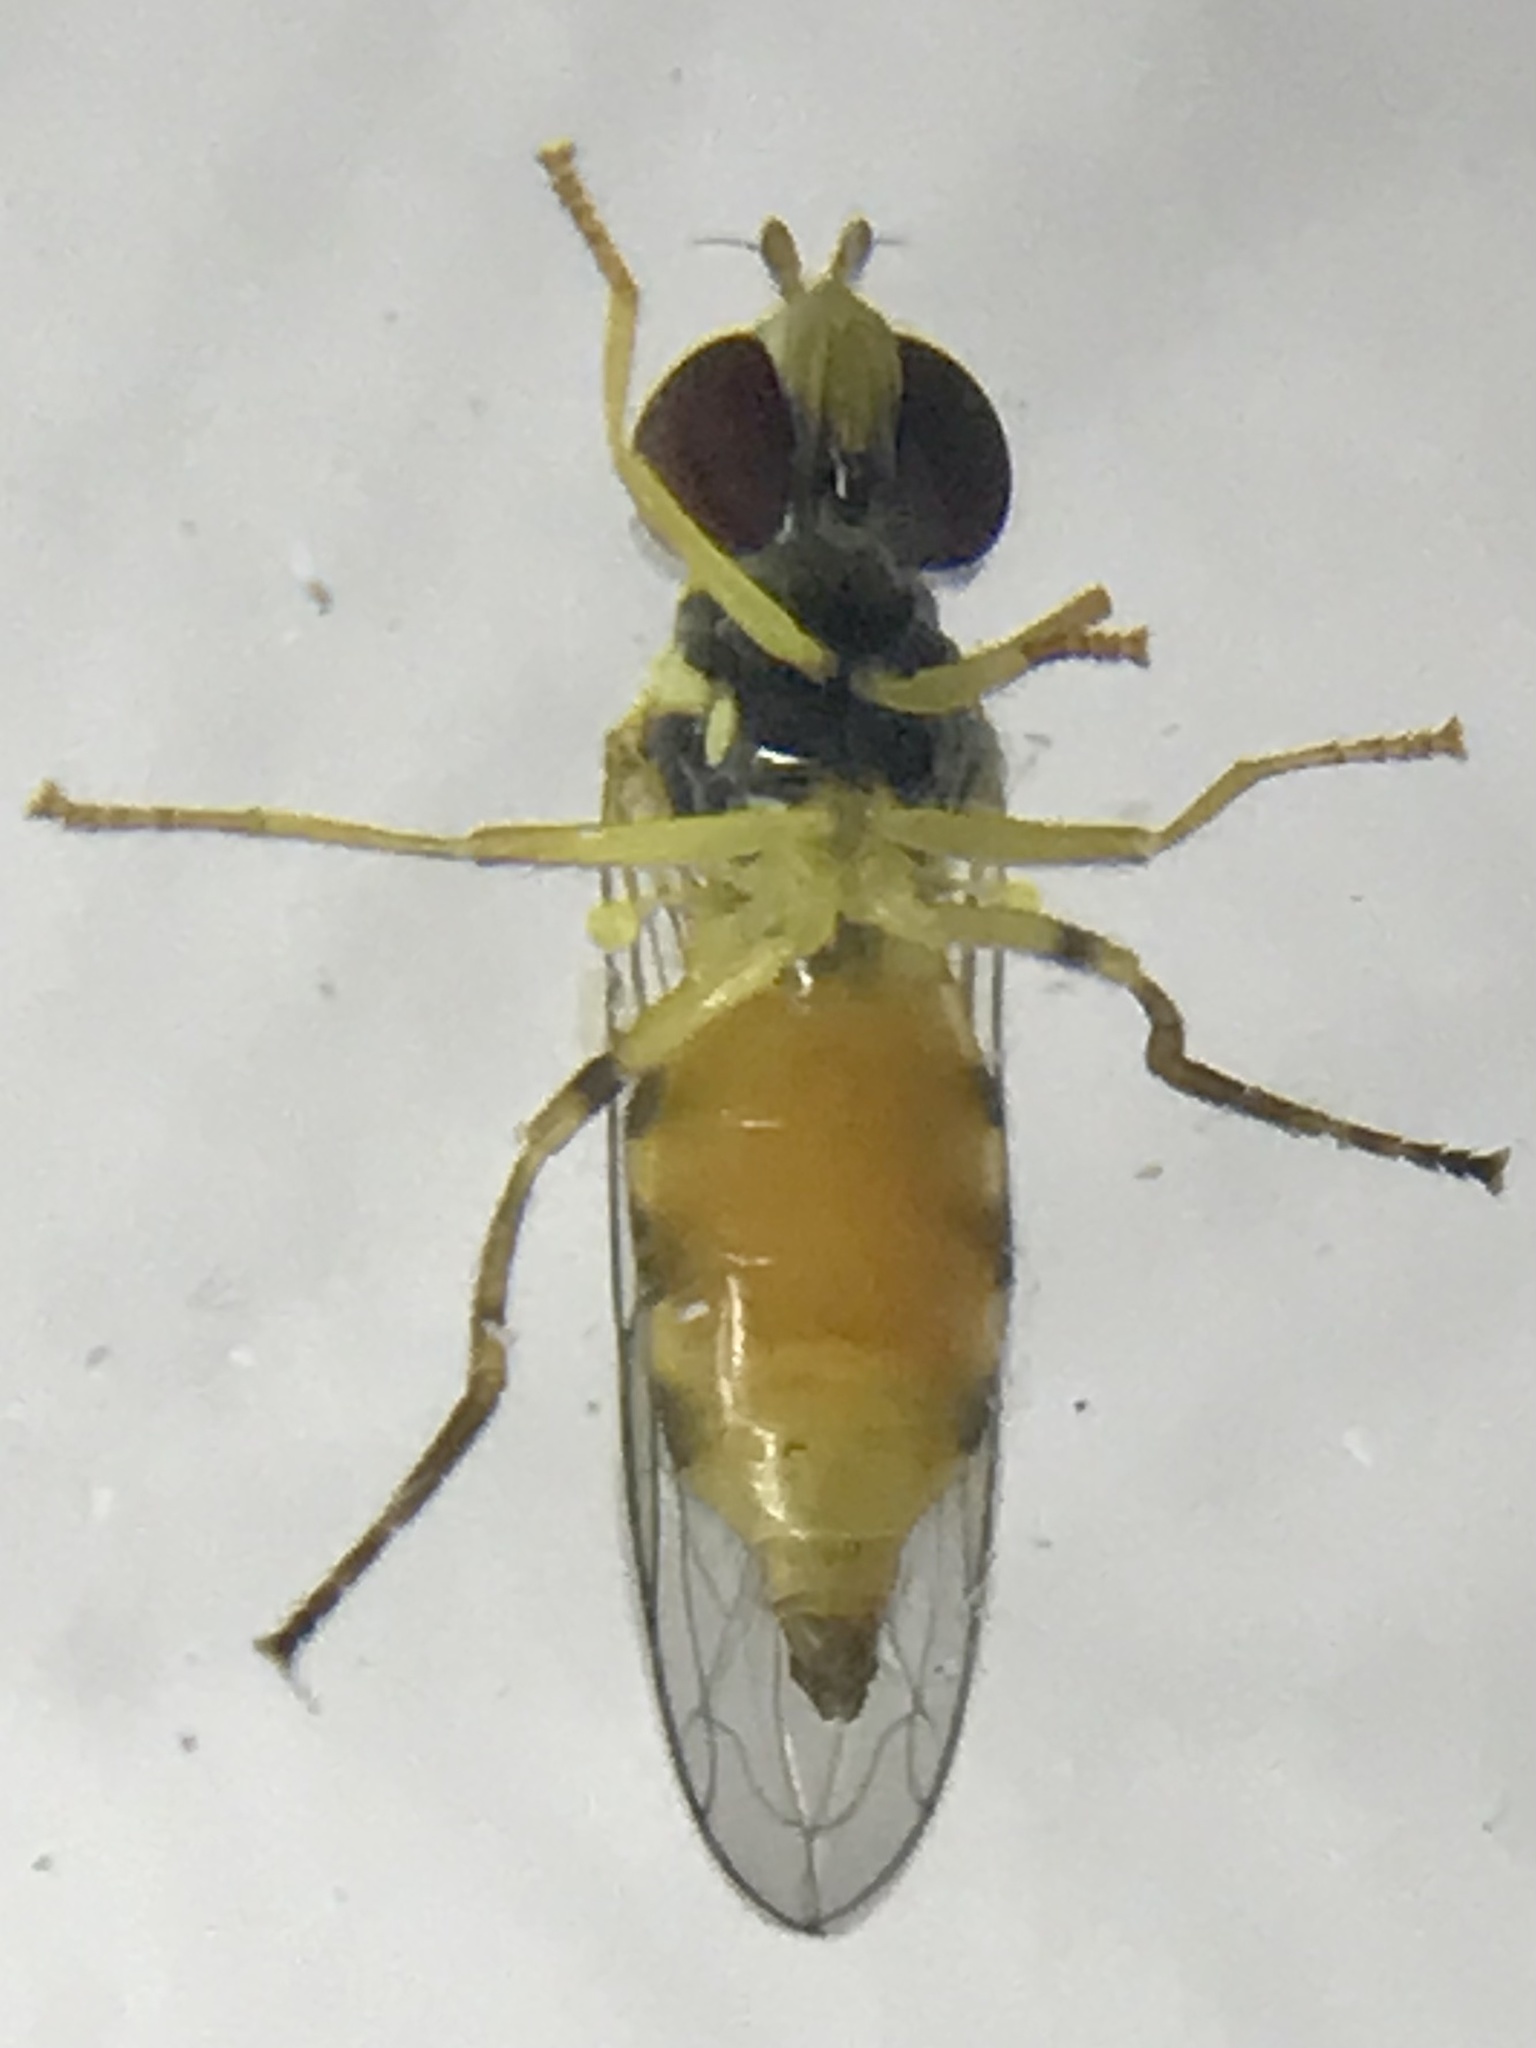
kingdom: Animalia
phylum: Arthropoda
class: Insecta
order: Diptera
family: Syrphidae
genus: Toxomerus
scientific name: Toxomerus geminatus
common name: Eastern calligrapher
